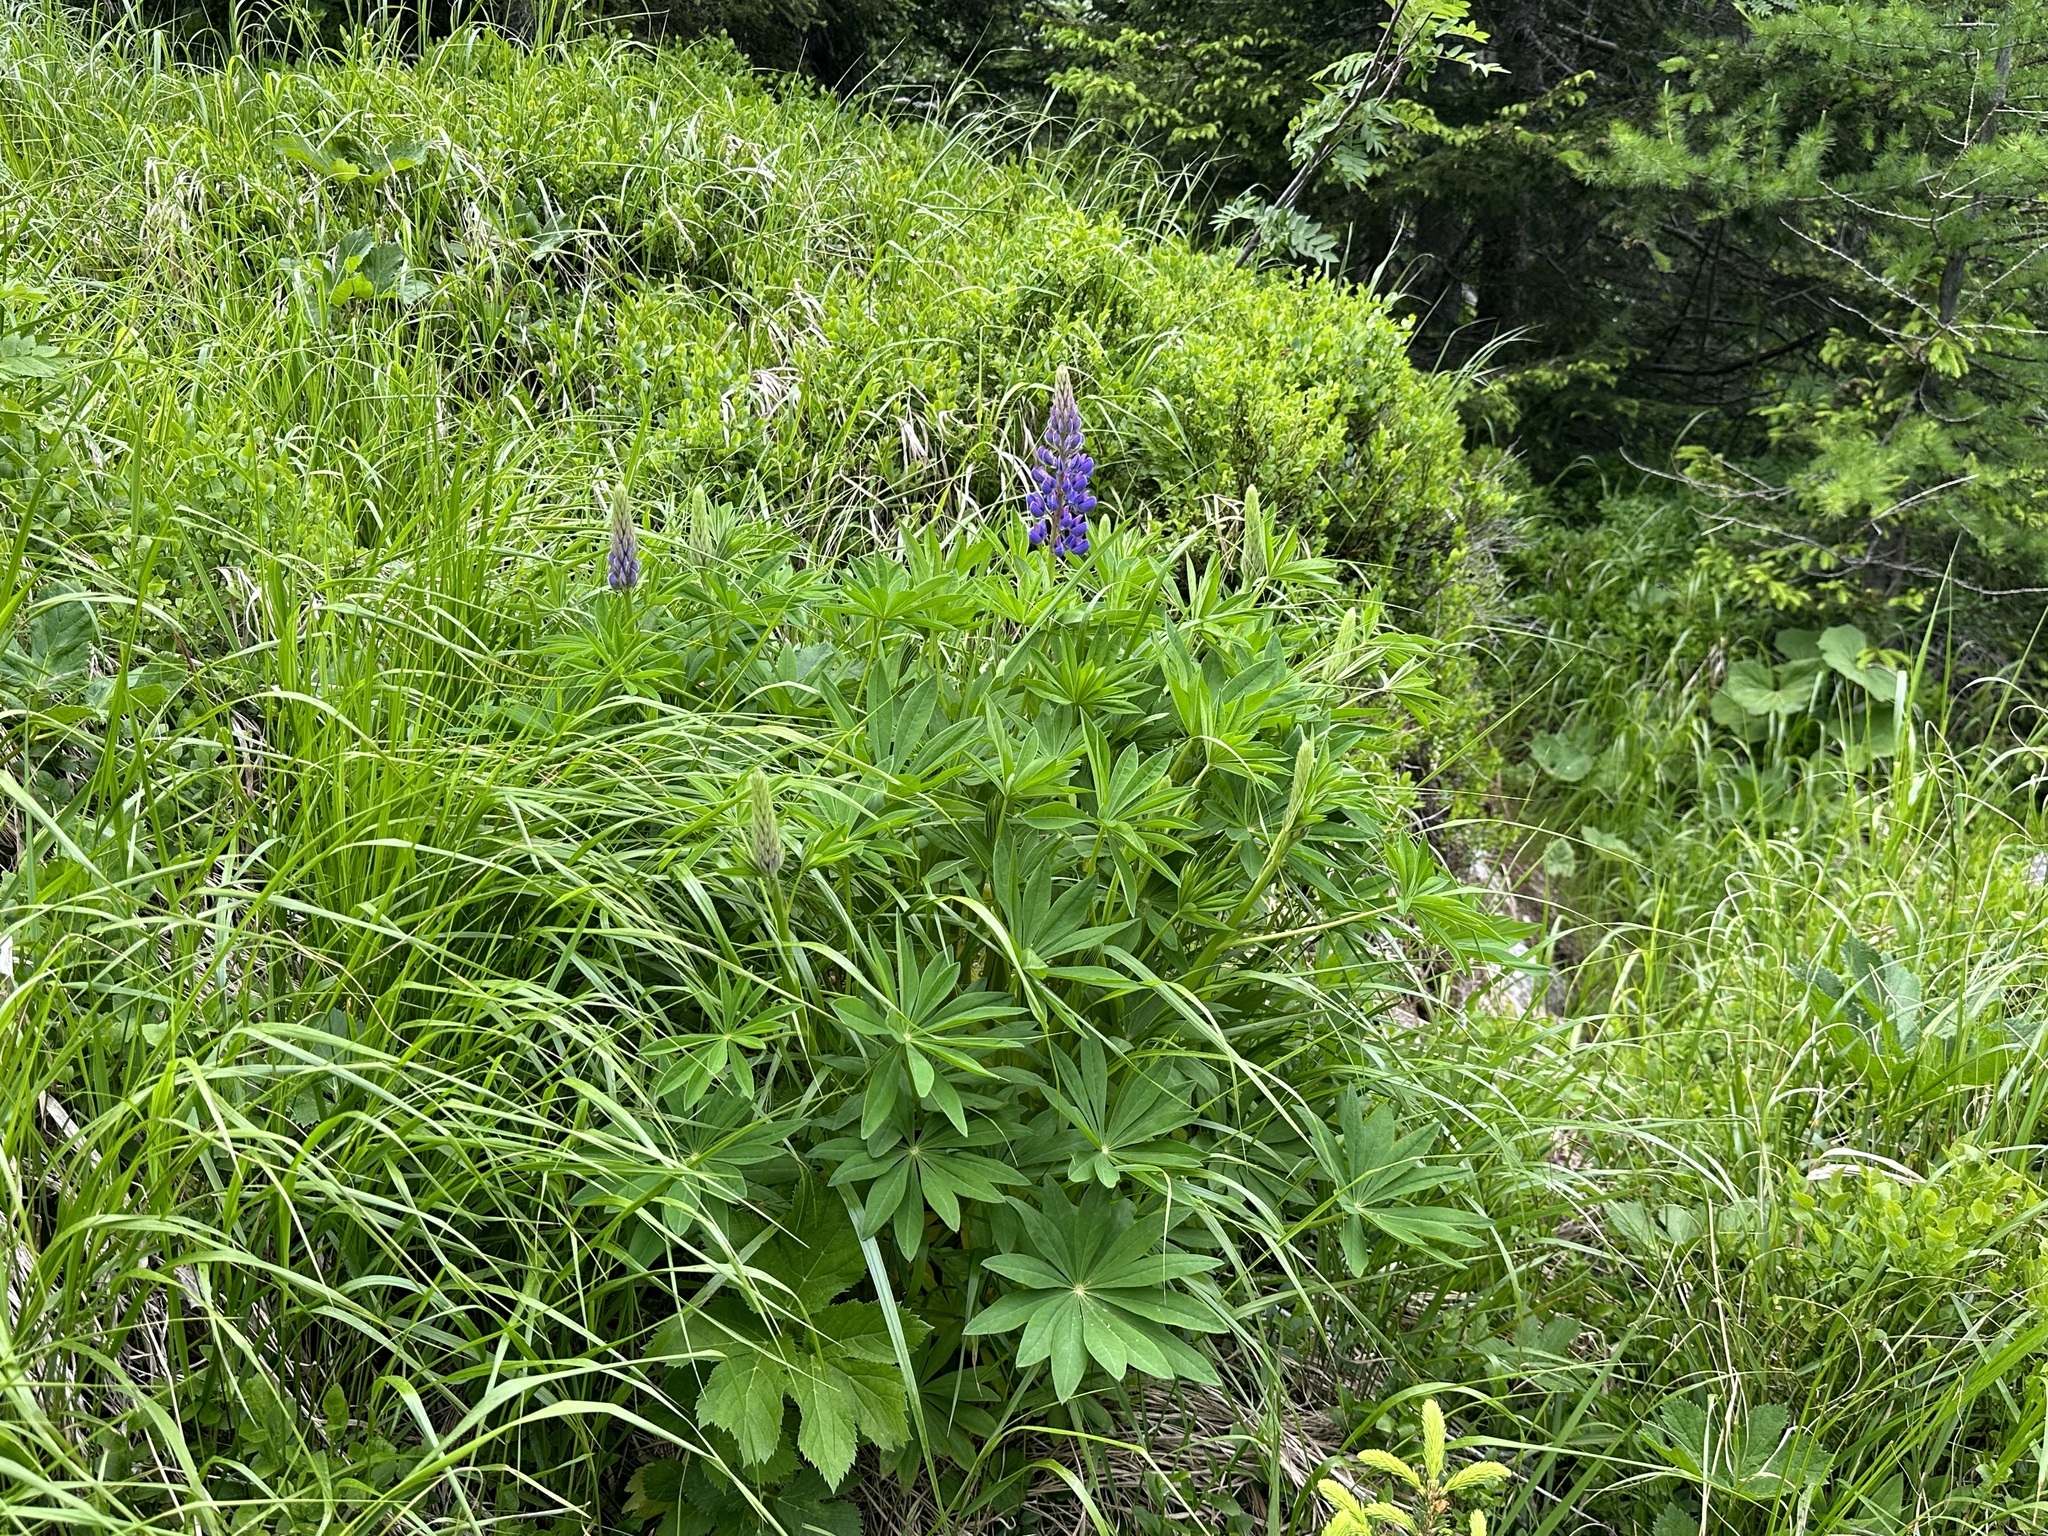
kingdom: Plantae
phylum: Tracheophyta
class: Magnoliopsida
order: Fabales
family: Fabaceae
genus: Lupinus
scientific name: Lupinus polyphyllus
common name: Garden lupin
